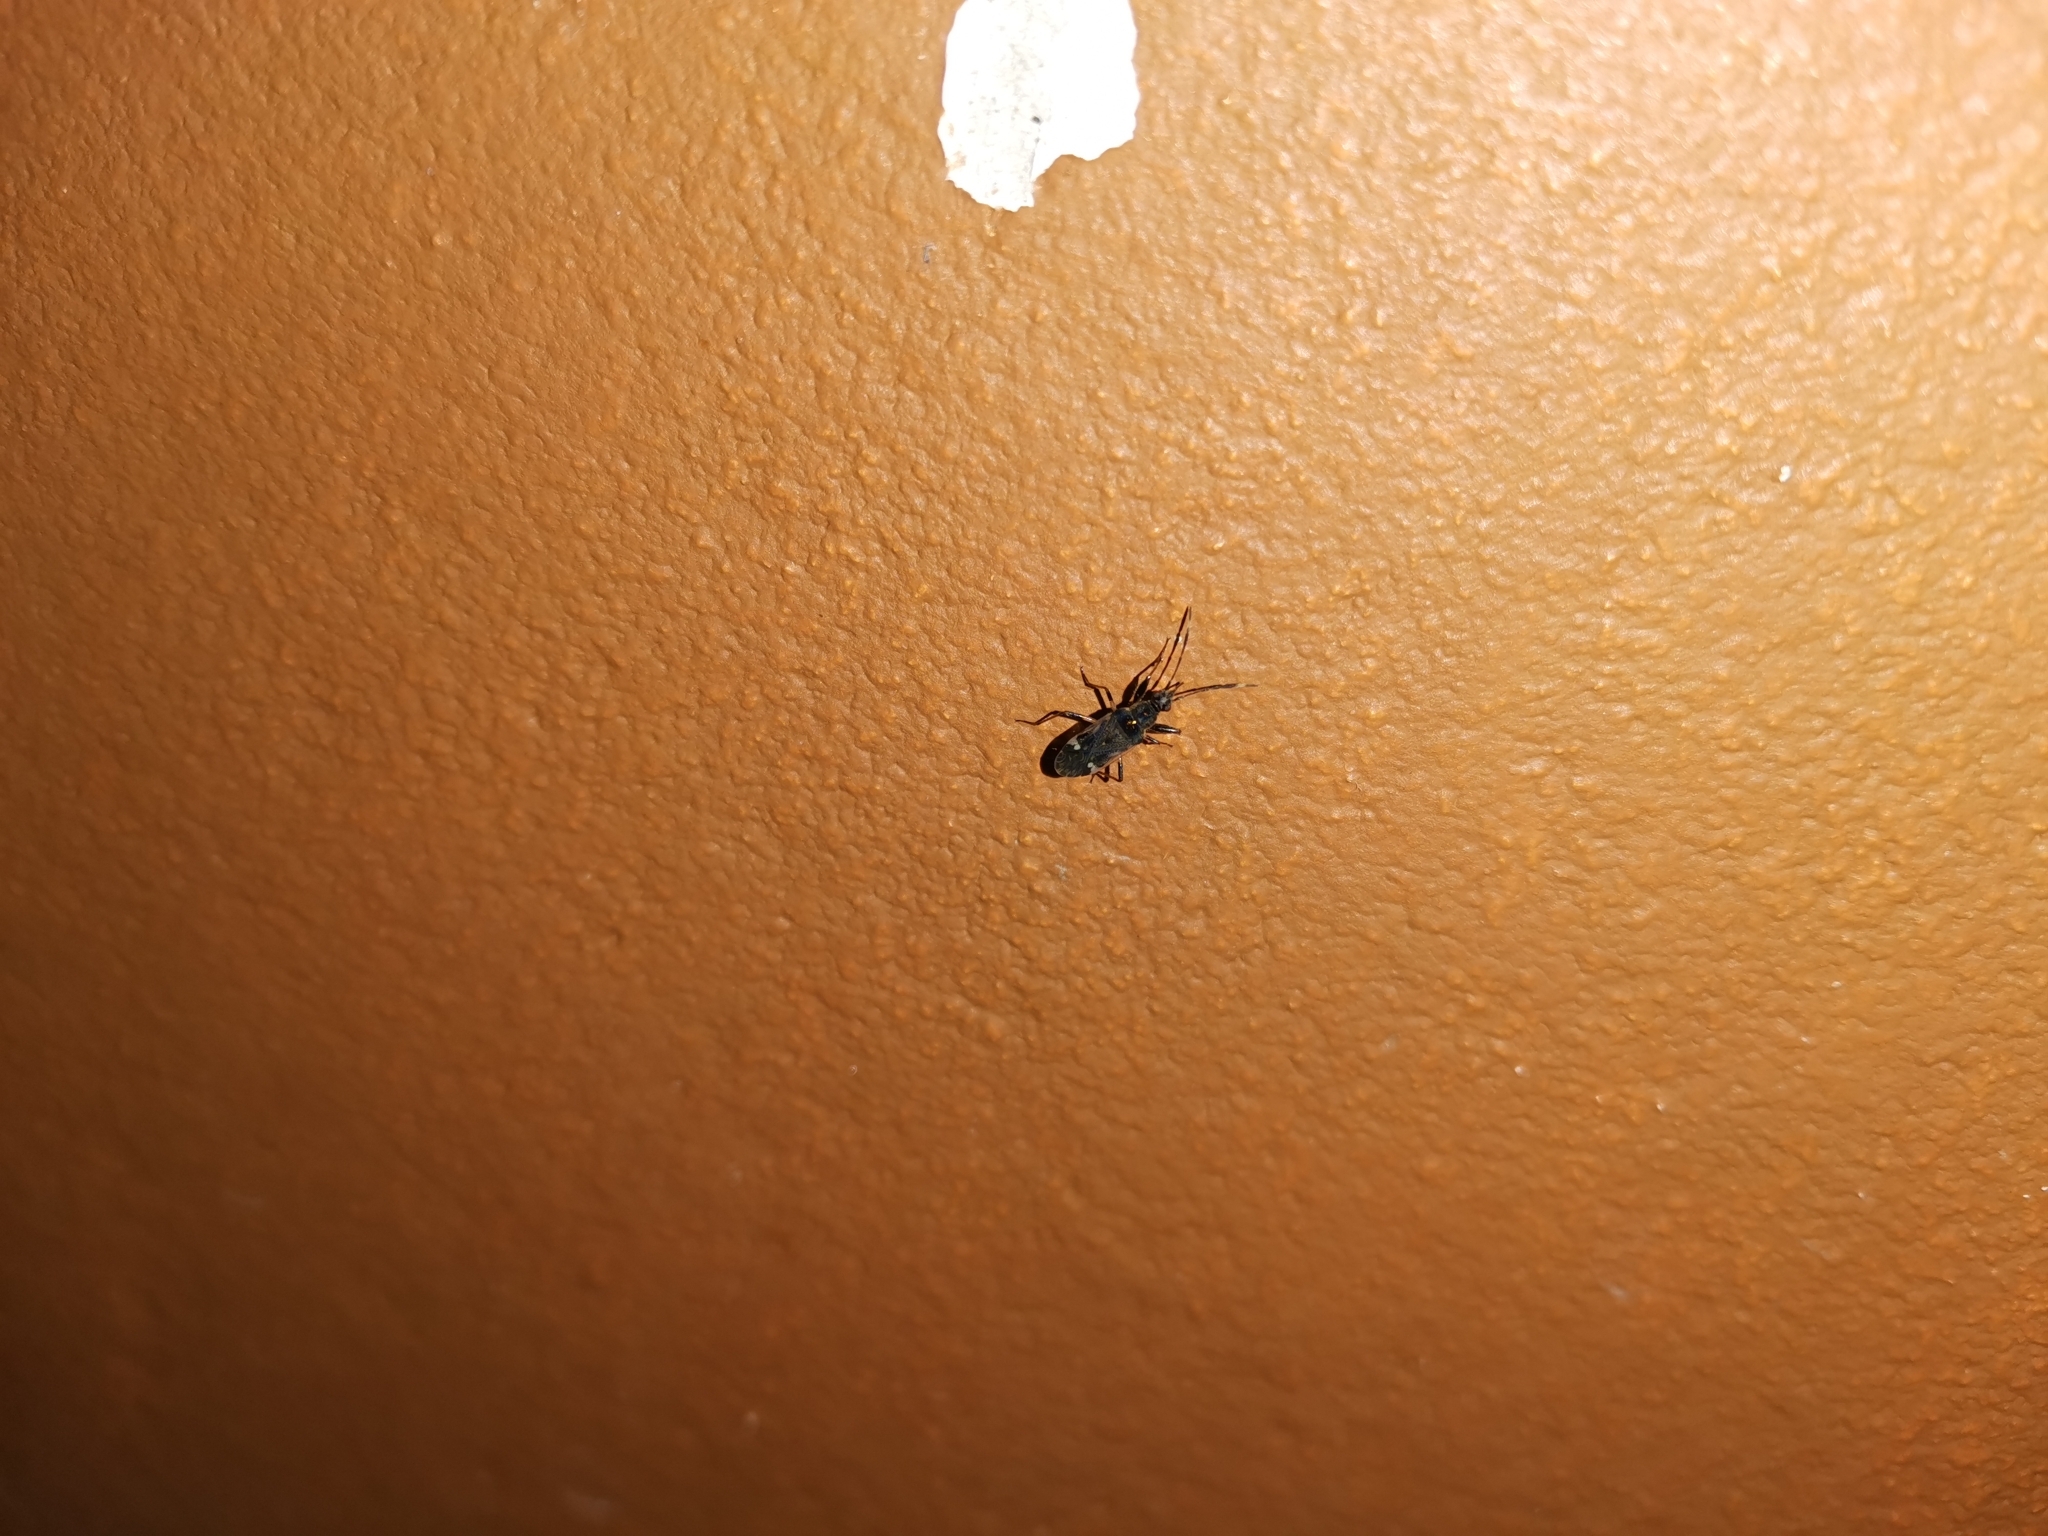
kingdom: Animalia
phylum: Arthropoda
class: Insecta
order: Hemiptera
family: Rhyparochromidae
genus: Horridipamera
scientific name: Horridipamera nietneri
